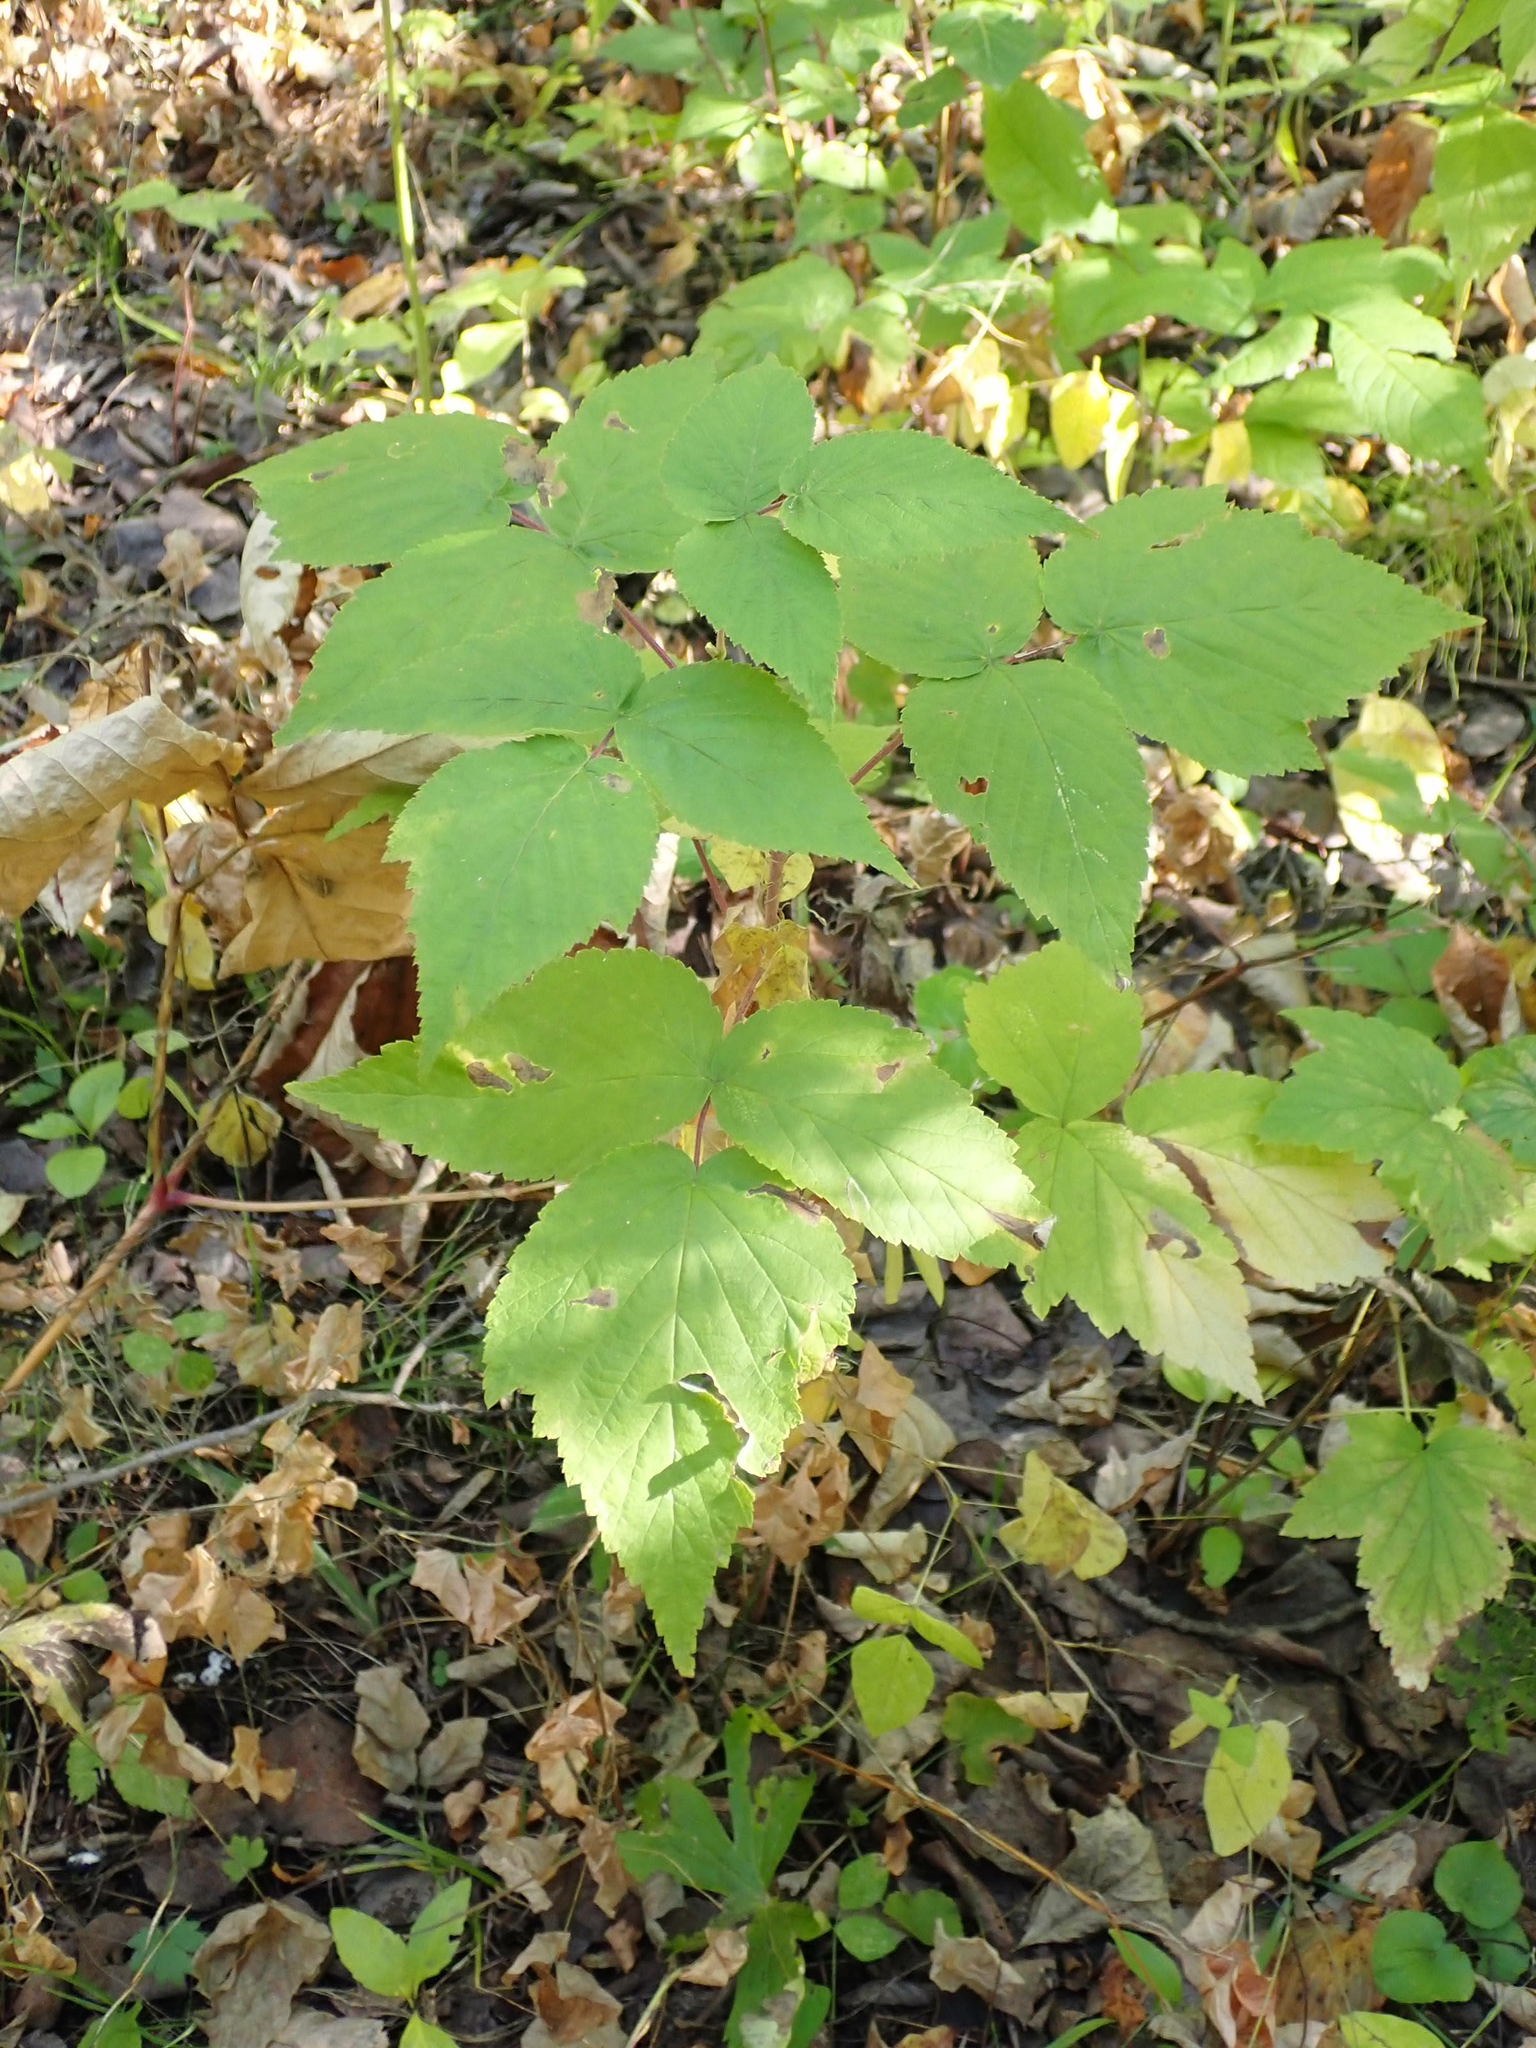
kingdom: Plantae
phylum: Tracheophyta
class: Magnoliopsida
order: Rosales
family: Rosaceae
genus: Rubus
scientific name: Rubus idaeus
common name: Raspberry
